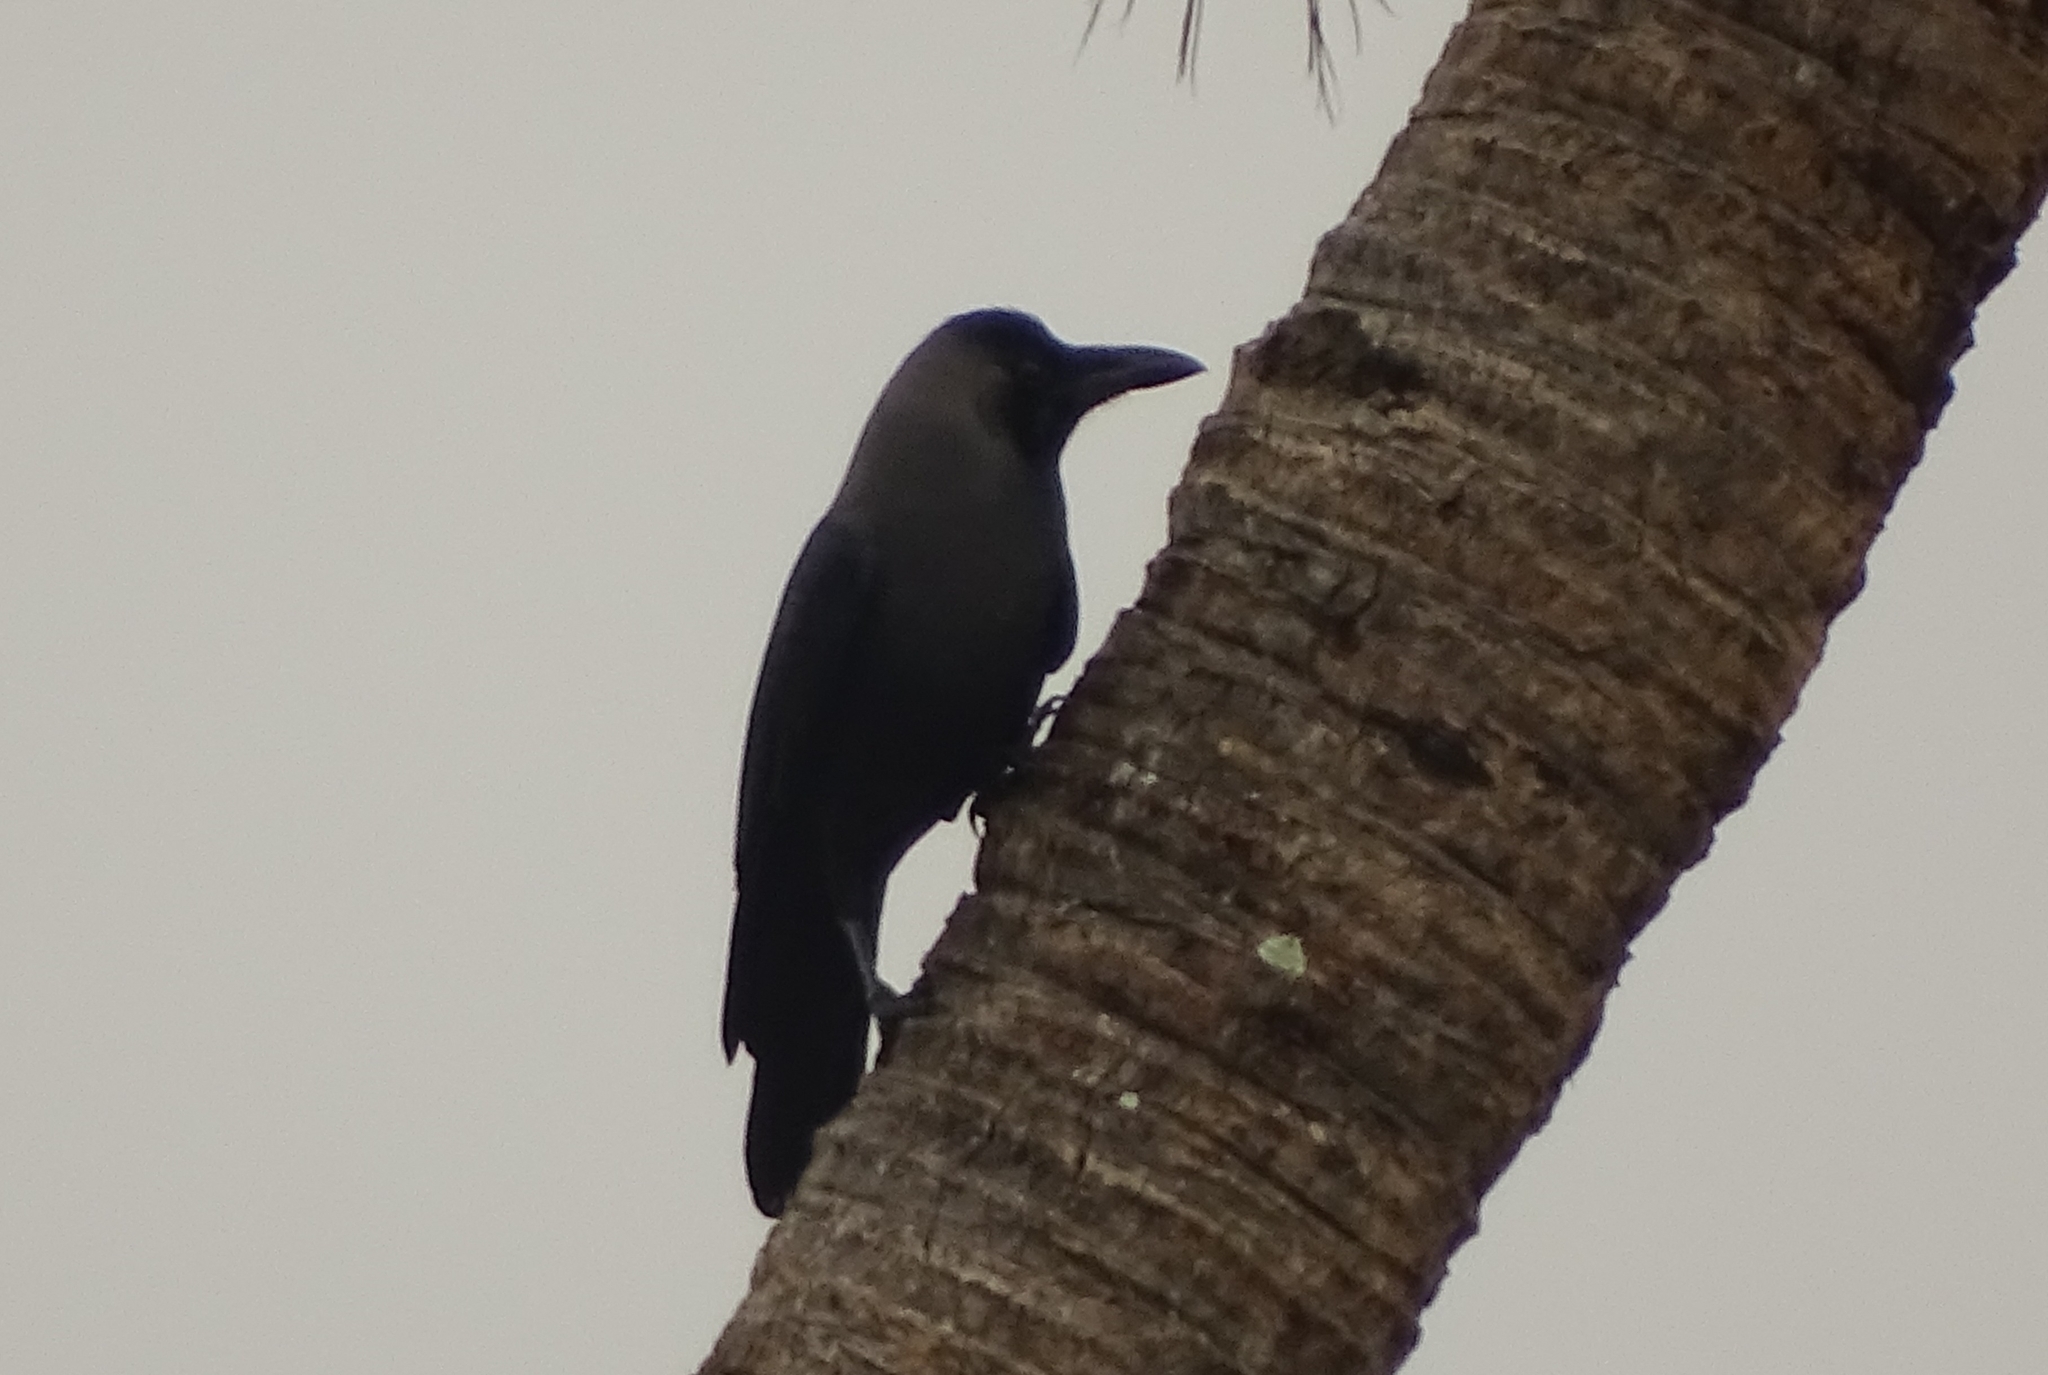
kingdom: Animalia
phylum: Chordata
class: Aves
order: Passeriformes
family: Corvidae
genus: Corvus
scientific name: Corvus splendens
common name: House crow
